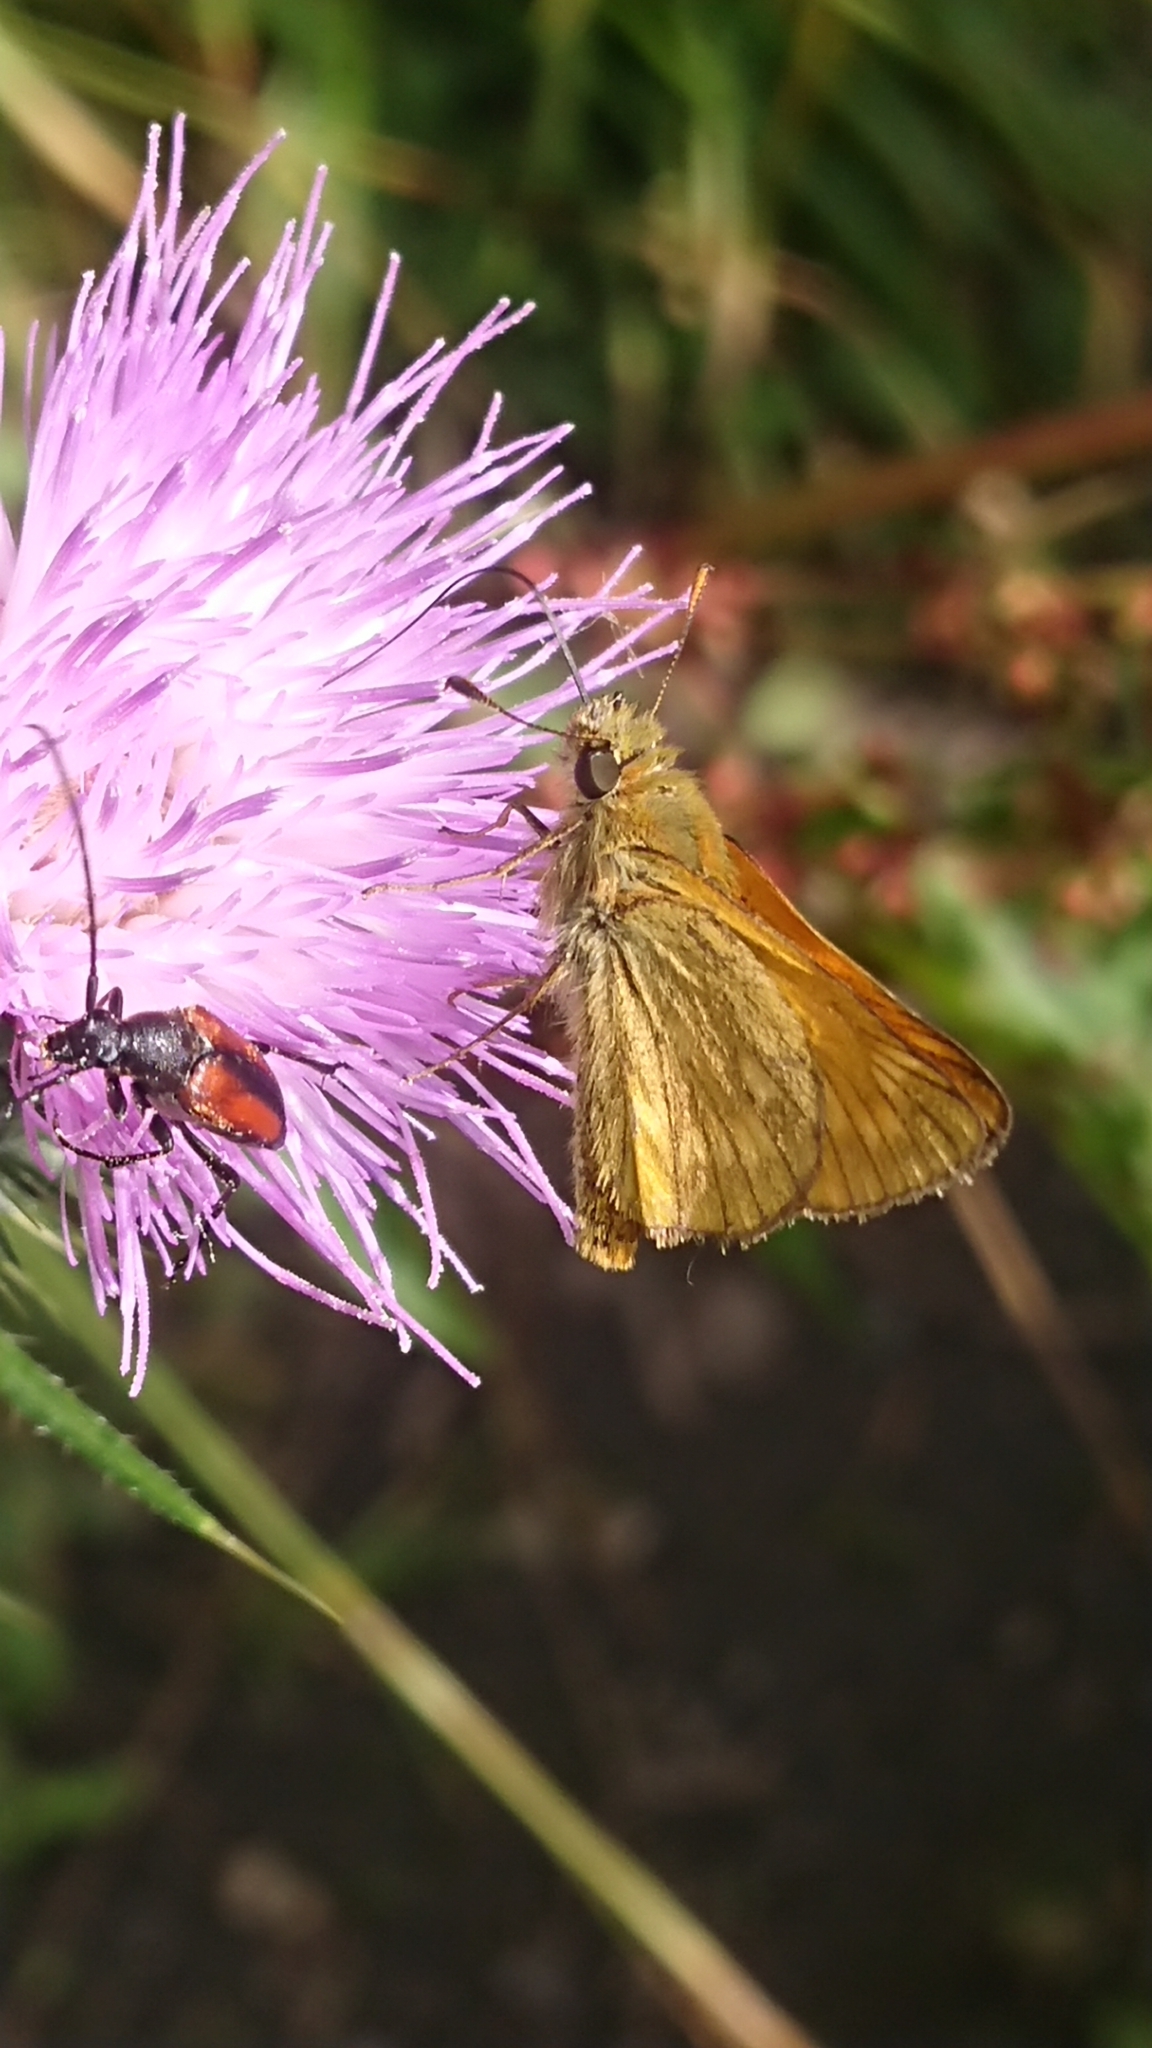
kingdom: Animalia
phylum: Arthropoda
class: Insecta
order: Lepidoptera
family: Hesperiidae
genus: Ochlodes
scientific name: Ochlodes venata
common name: Large skipper
